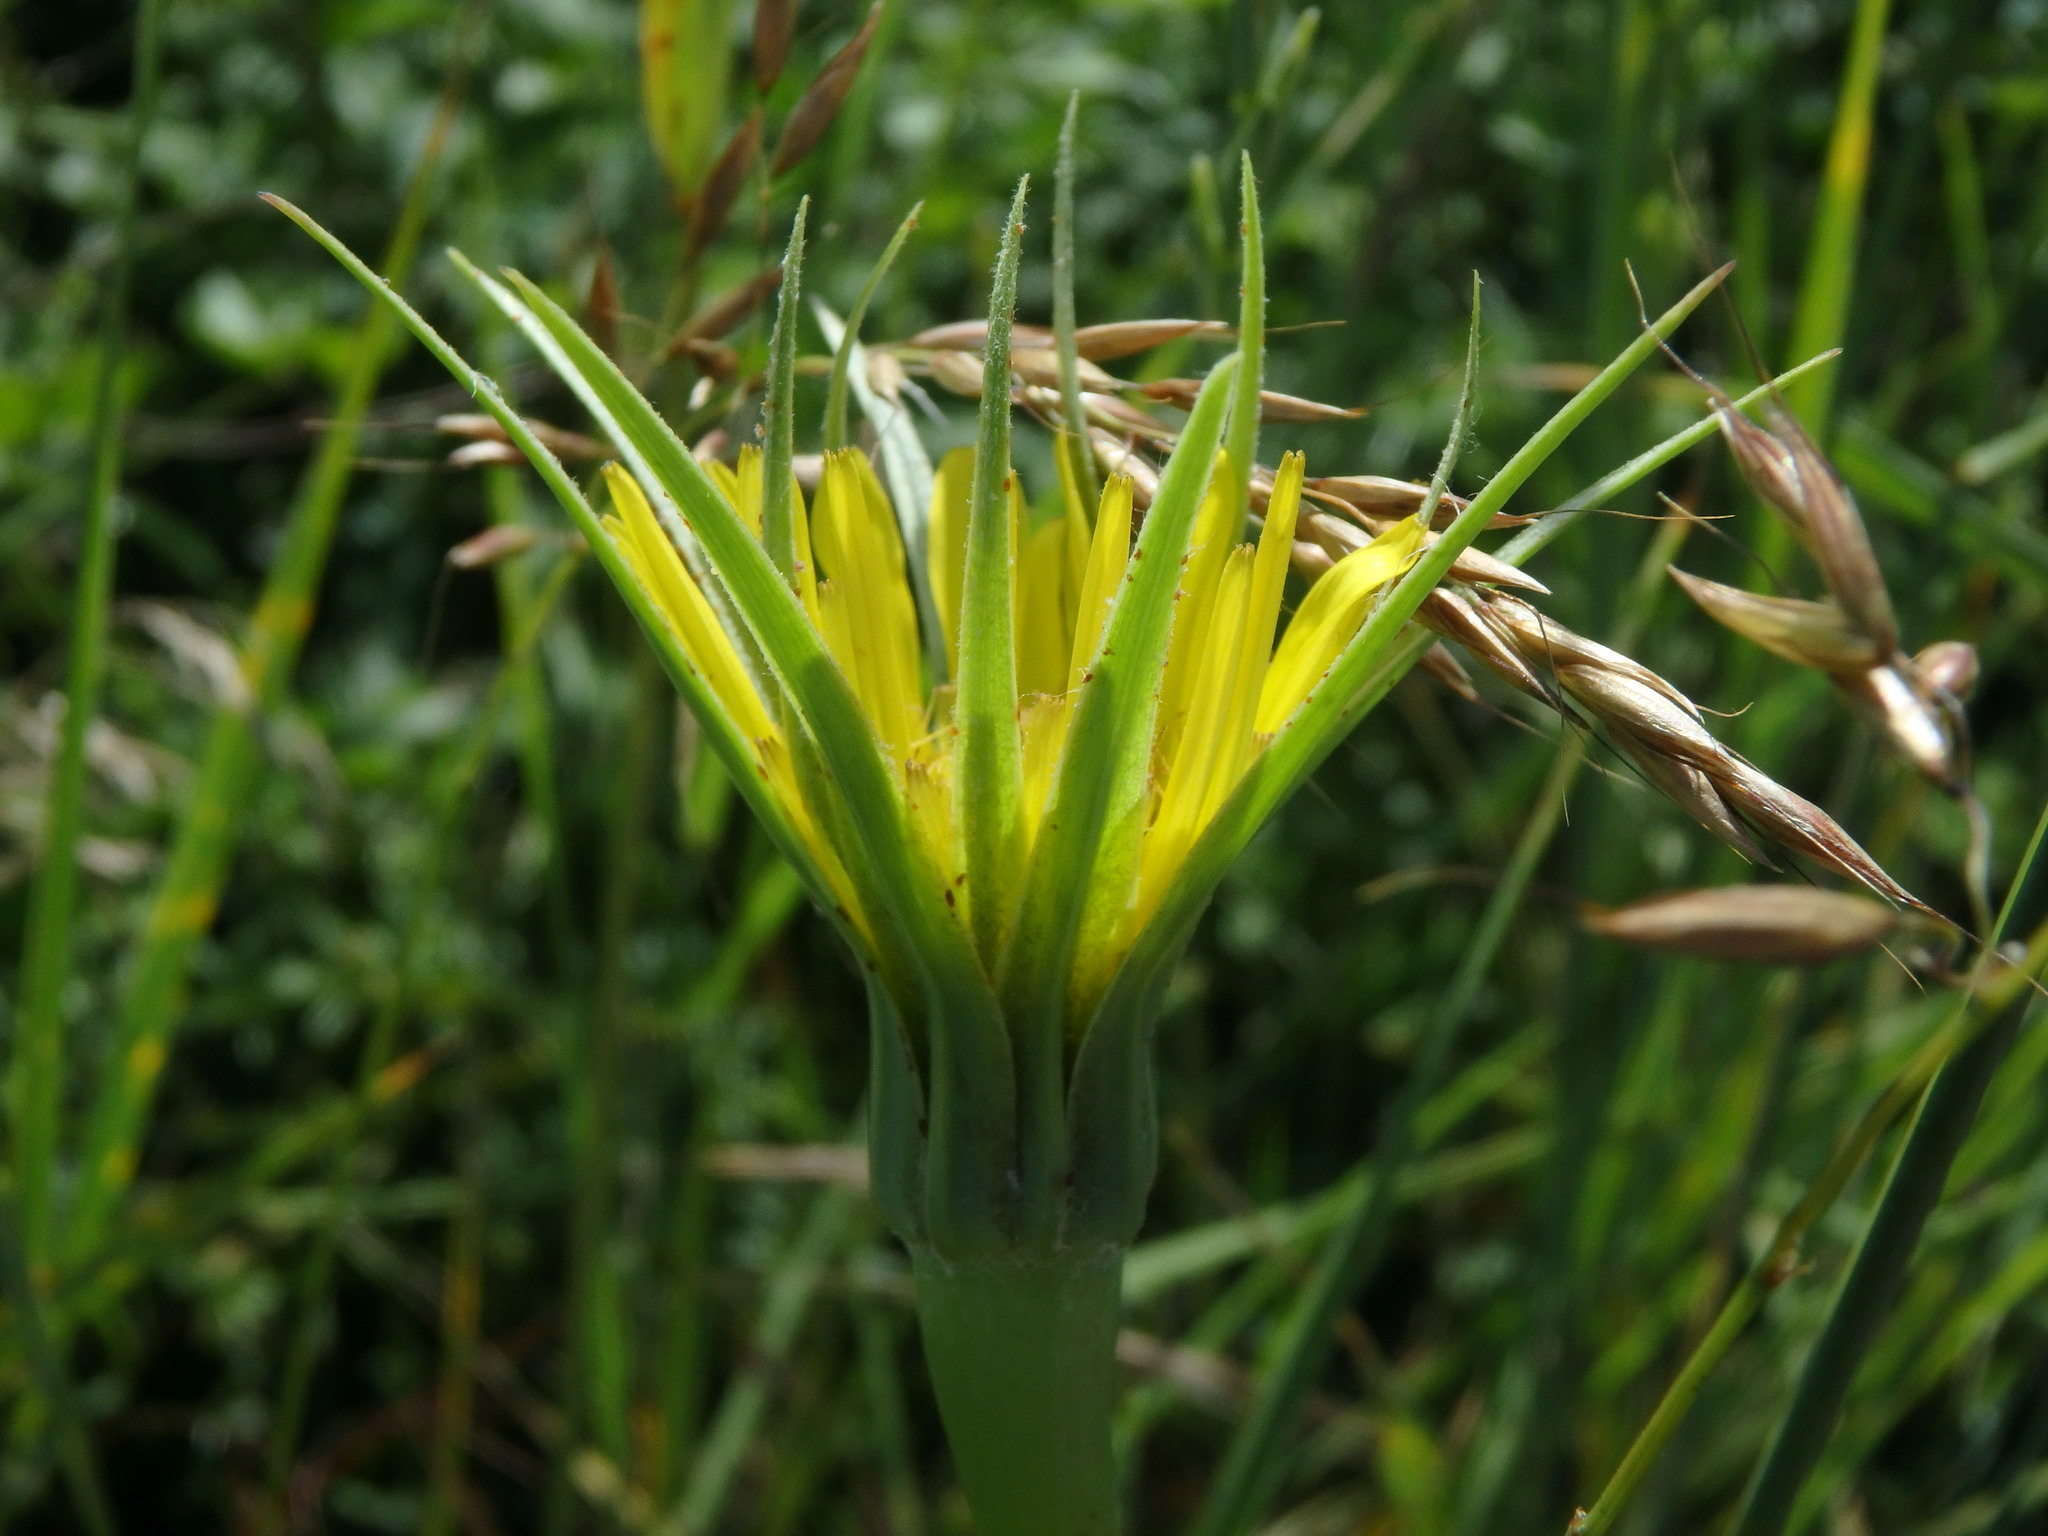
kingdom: Plantae
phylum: Tracheophyta
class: Magnoliopsida
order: Asterales
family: Asteraceae
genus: Tragopogon
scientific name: Tragopogon dubius
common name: Yellow salsify
